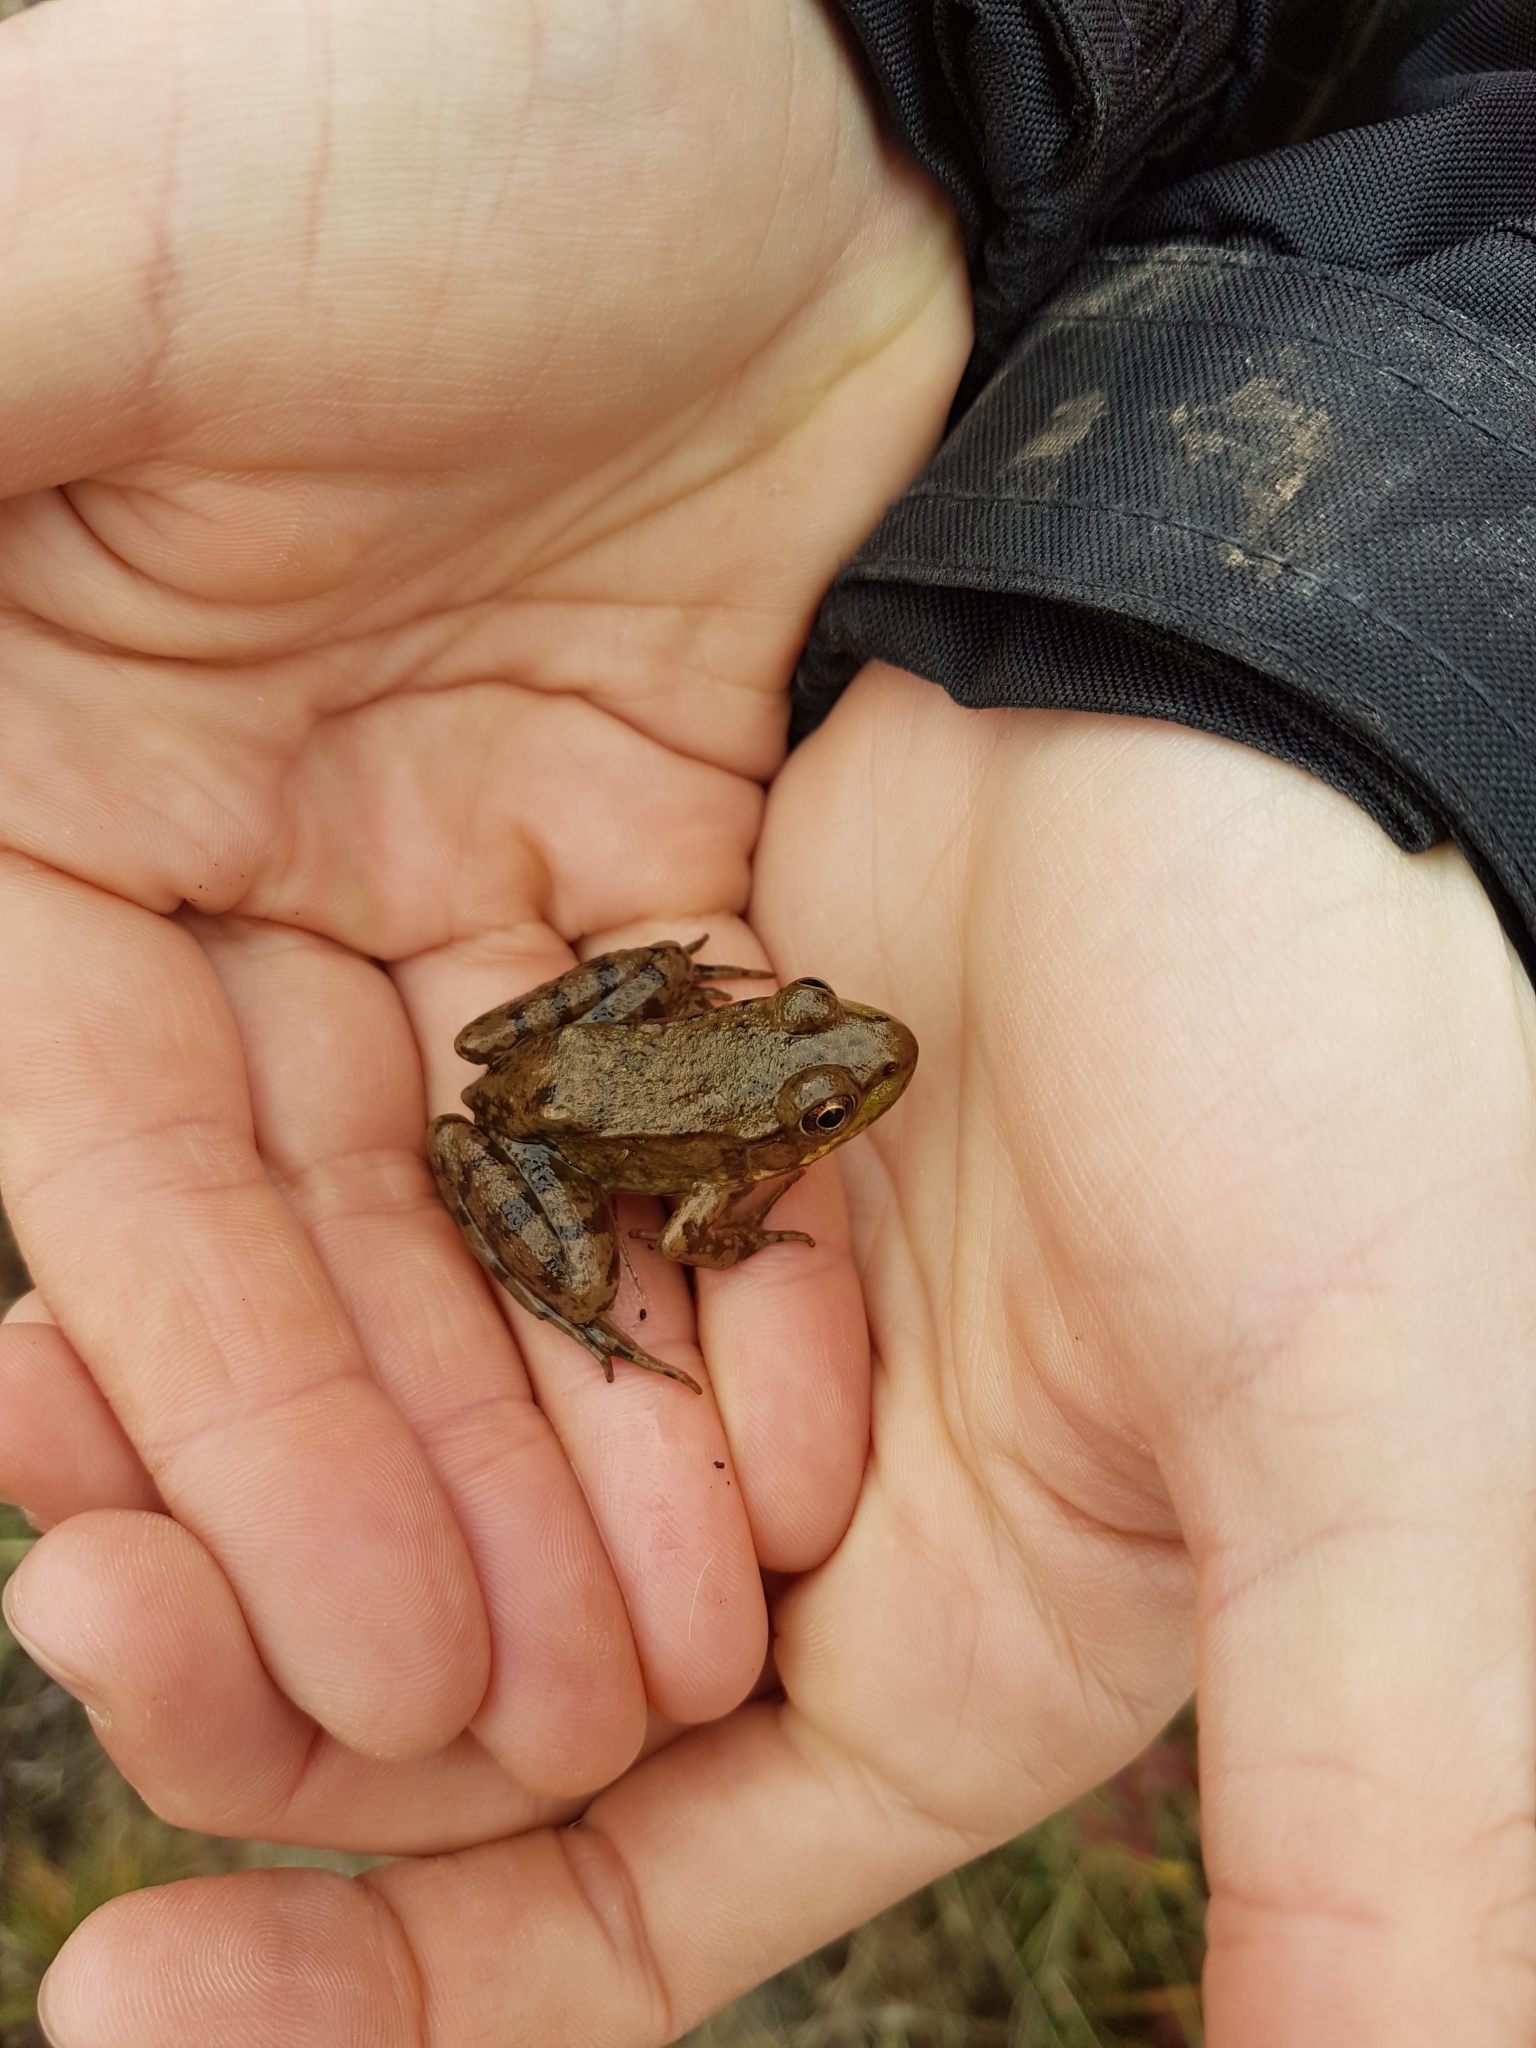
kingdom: Animalia
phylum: Chordata
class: Amphibia
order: Anura
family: Ranidae
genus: Lithobates
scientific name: Lithobates clamitans
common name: Green frog
